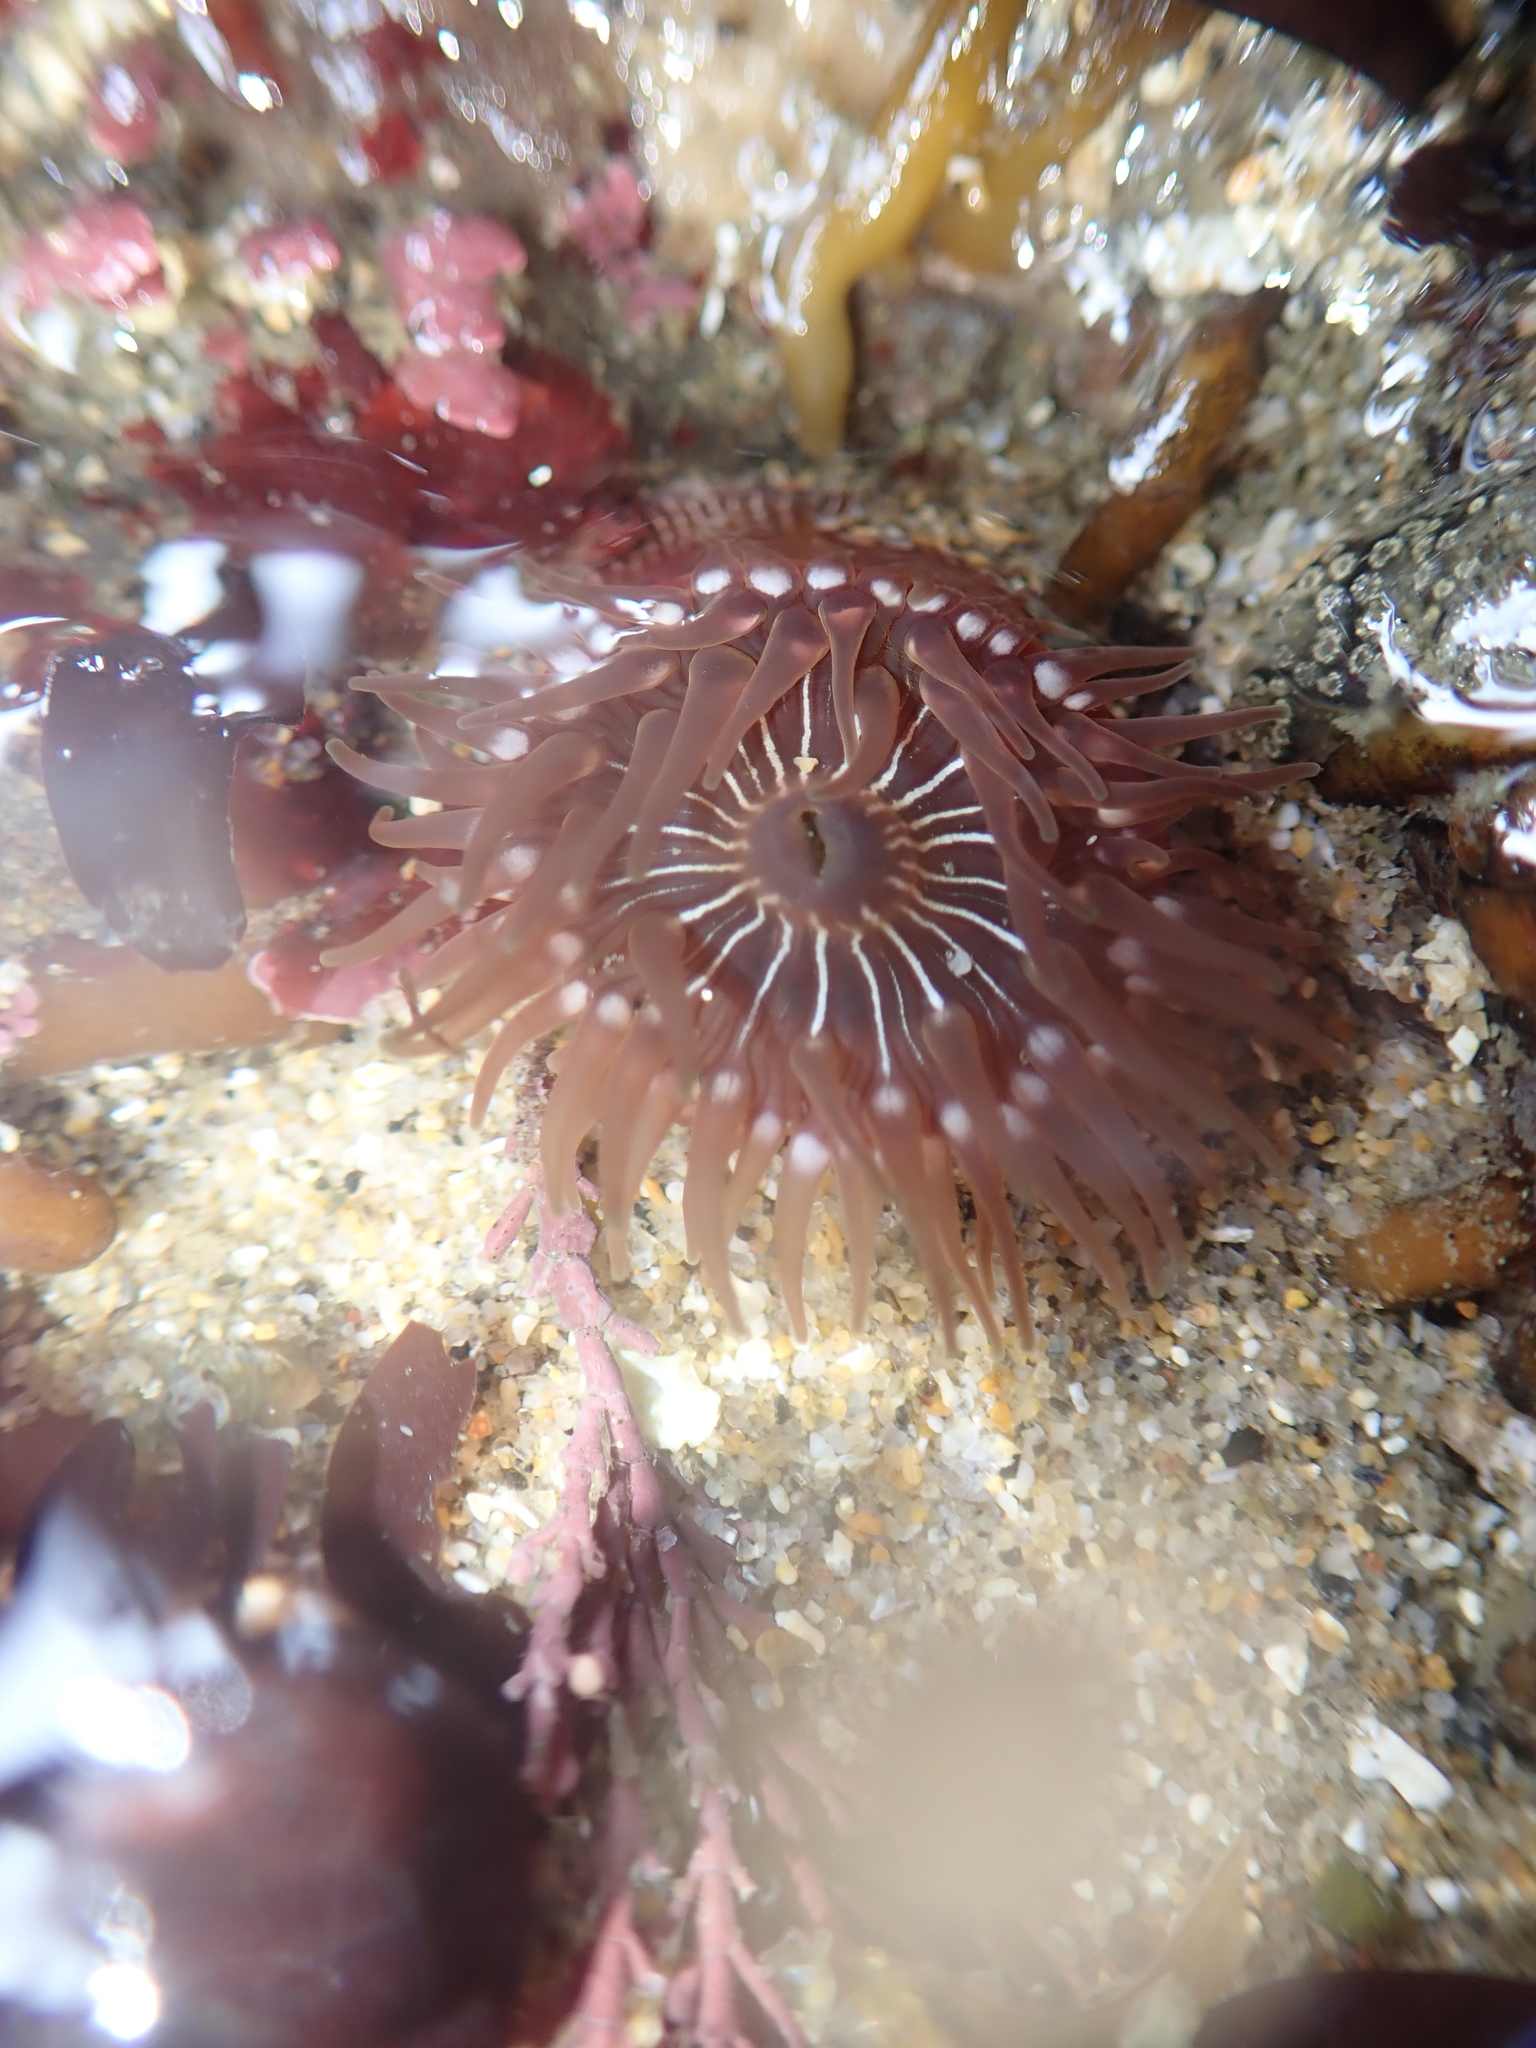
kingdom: Animalia
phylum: Cnidaria
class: Anthozoa
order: Actiniaria
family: Actiniidae
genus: Epiactis
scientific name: Epiactis prolifera
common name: Brooding anemone
